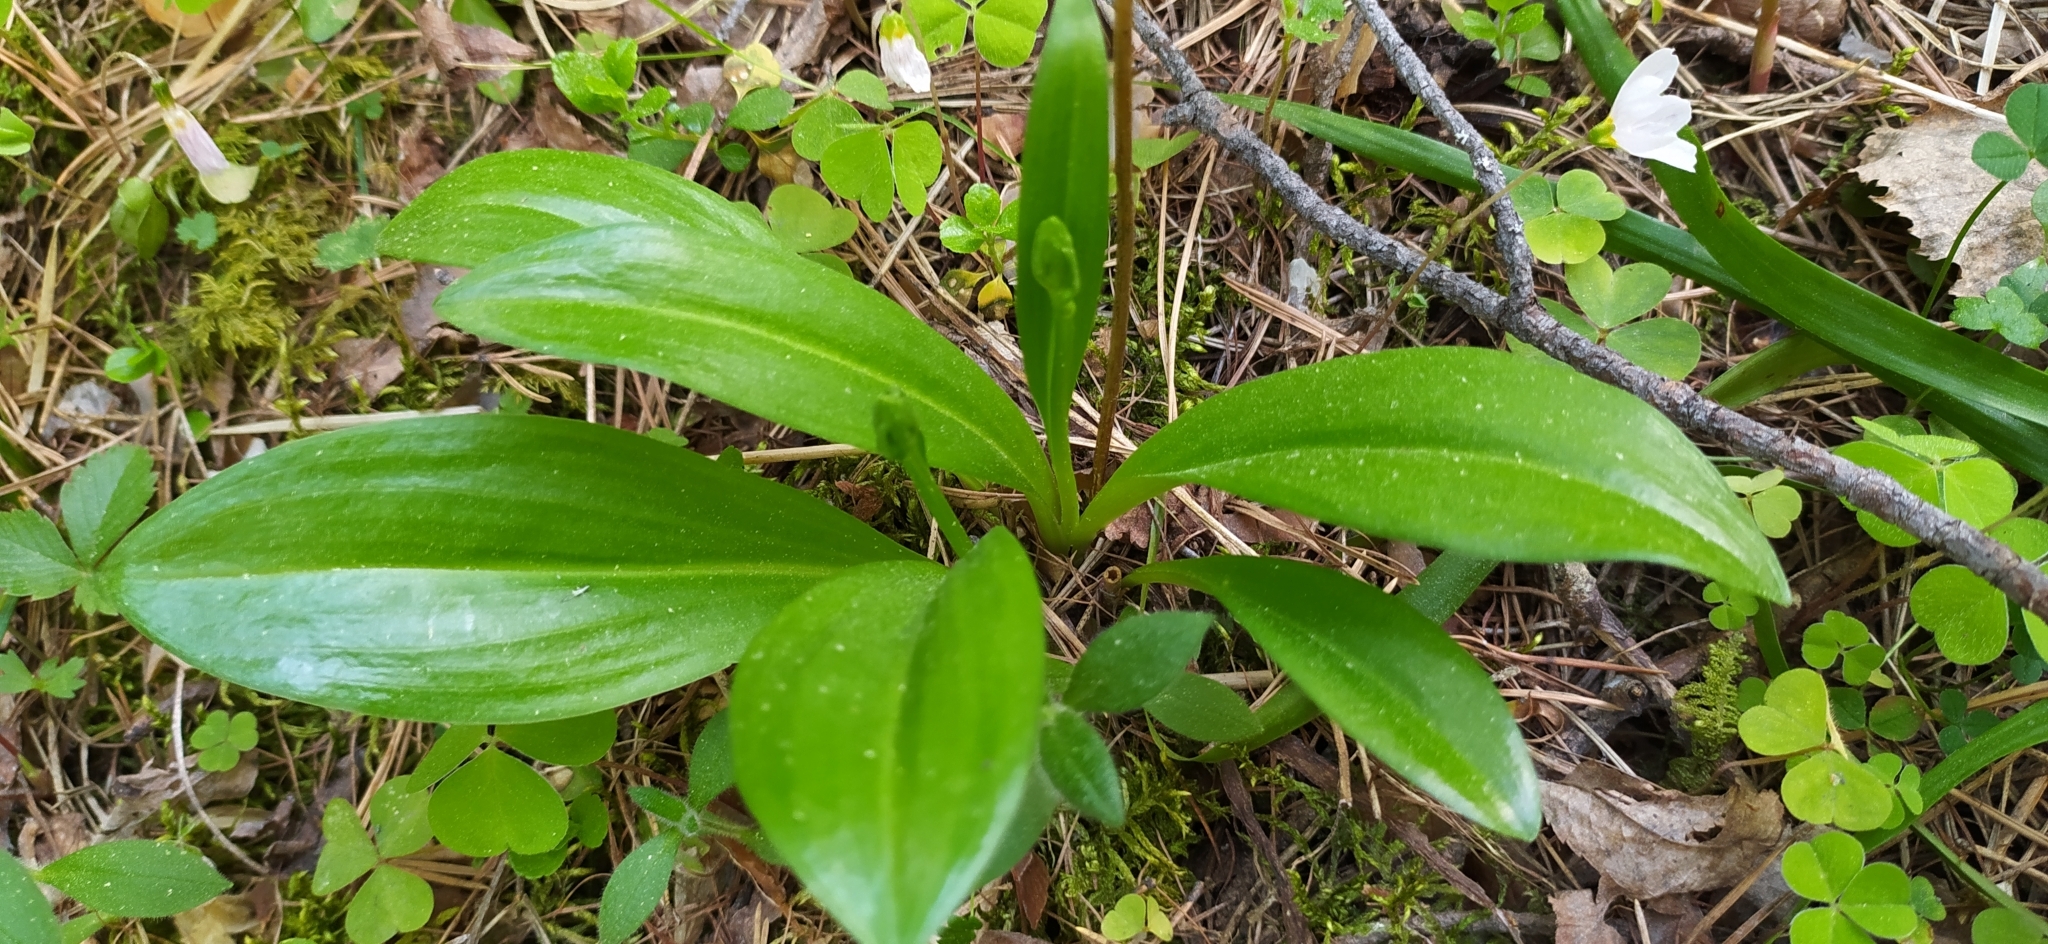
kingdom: Plantae
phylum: Tracheophyta
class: Liliopsida
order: Asparagales
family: Orchidaceae
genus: Platanthera
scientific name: Platanthera bifolia
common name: Lesser butterfly-orchid
